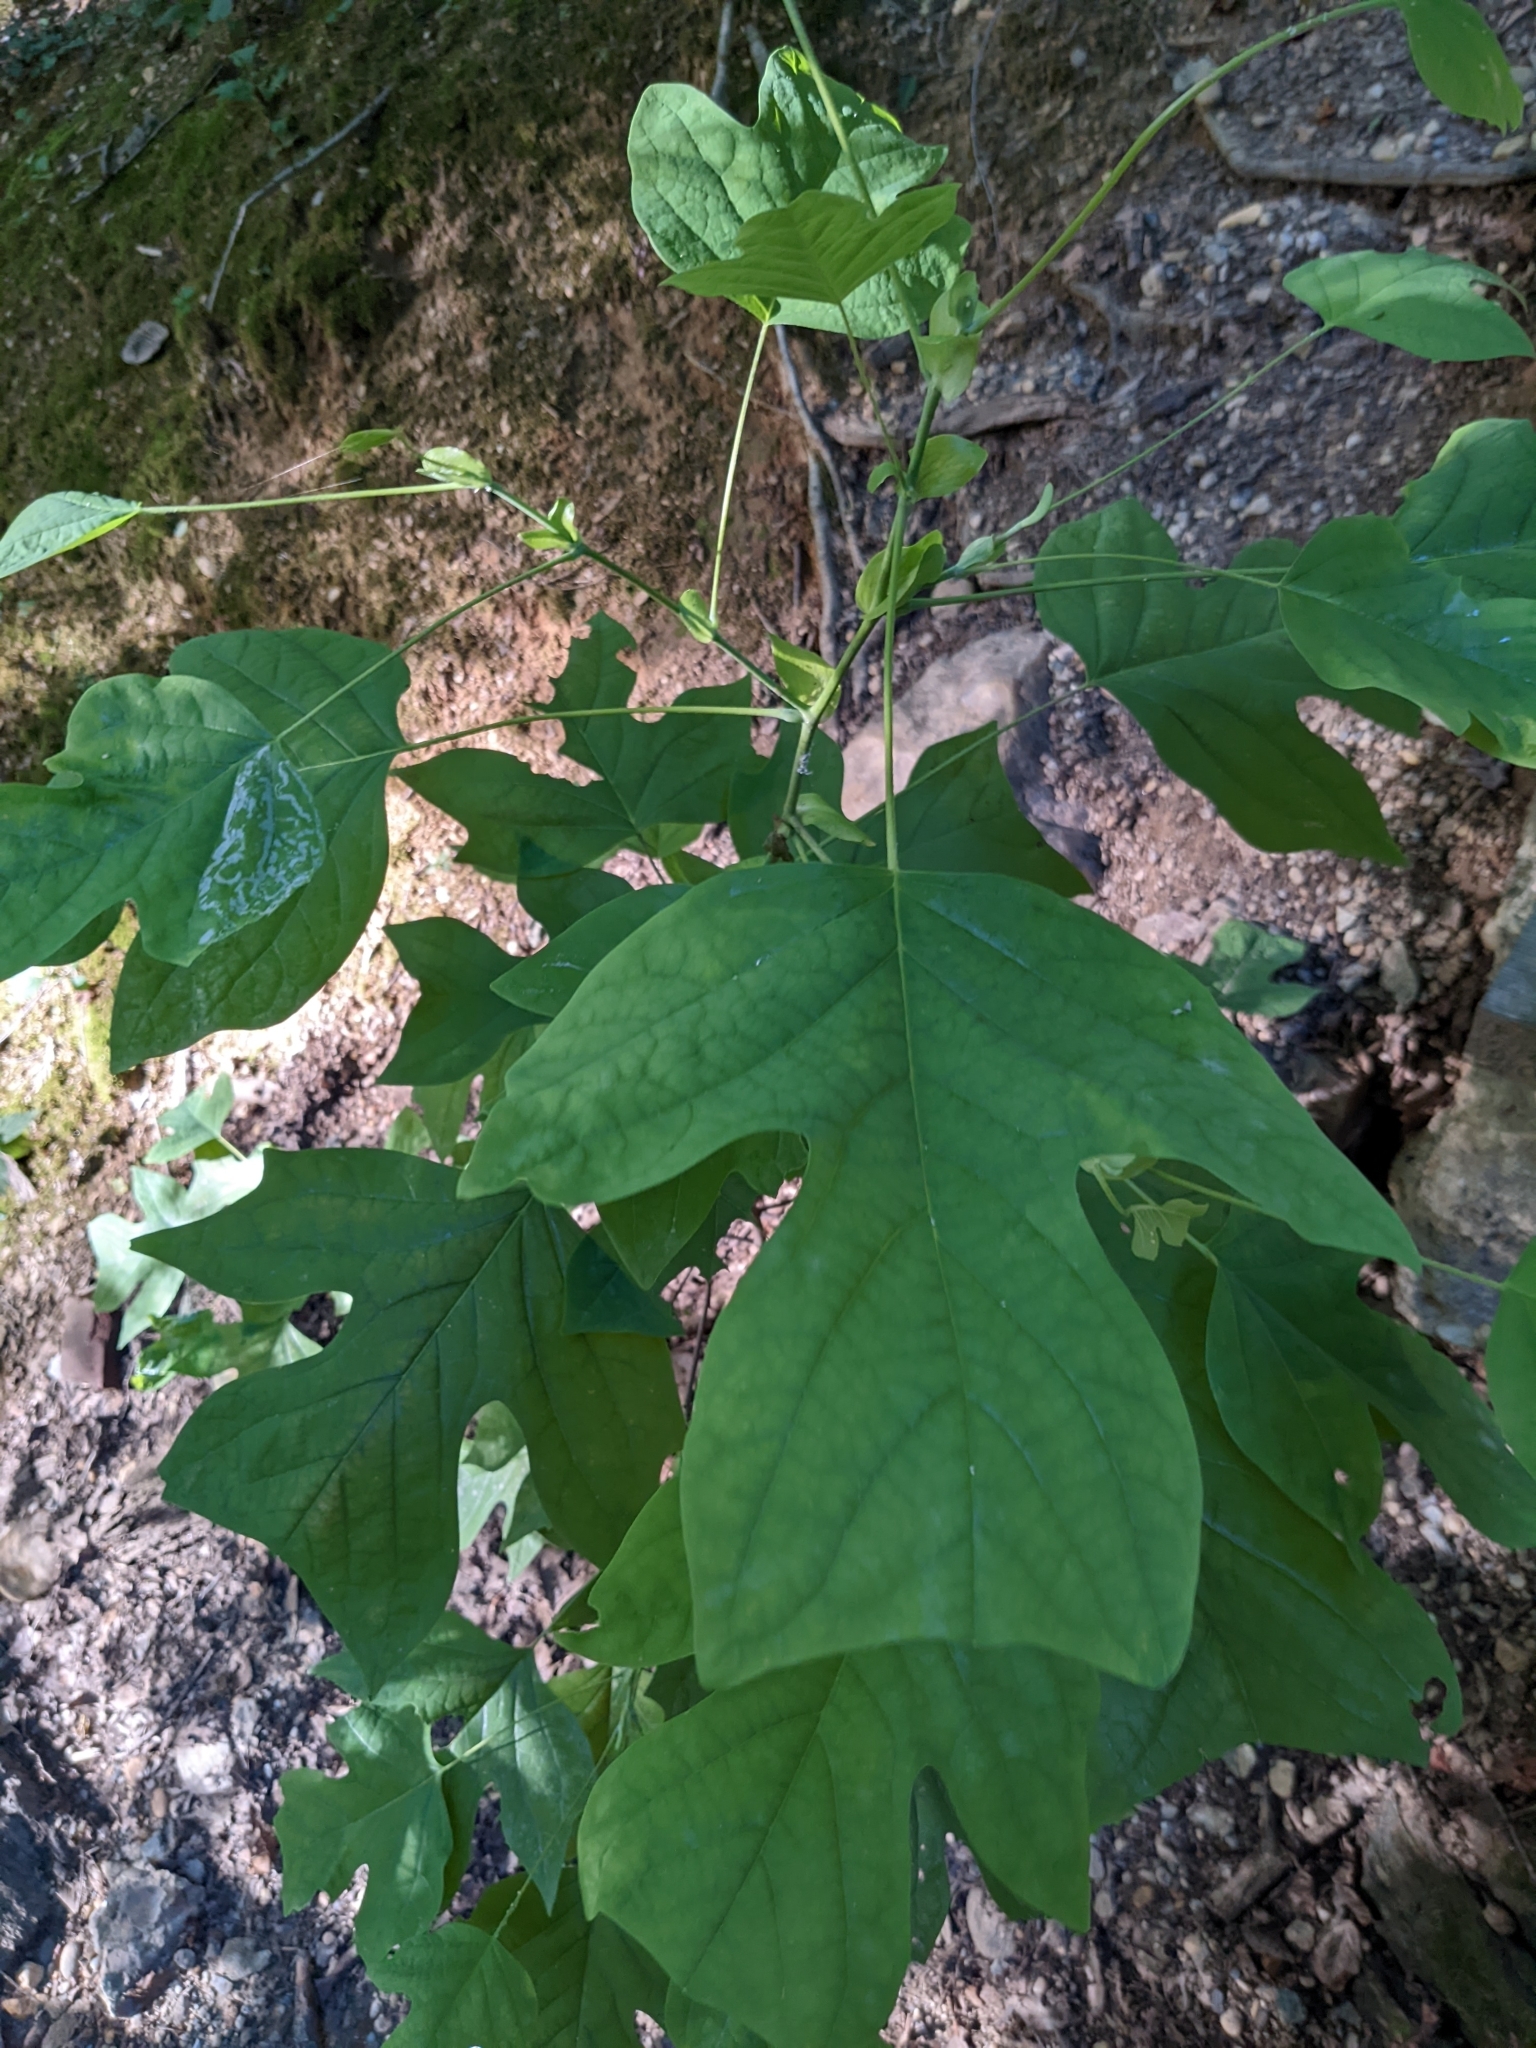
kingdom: Plantae
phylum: Tracheophyta
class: Magnoliopsida
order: Magnoliales
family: Magnoliaceae
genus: Liriodendron
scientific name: Liriodendron tulipifera
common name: Tulip tree
